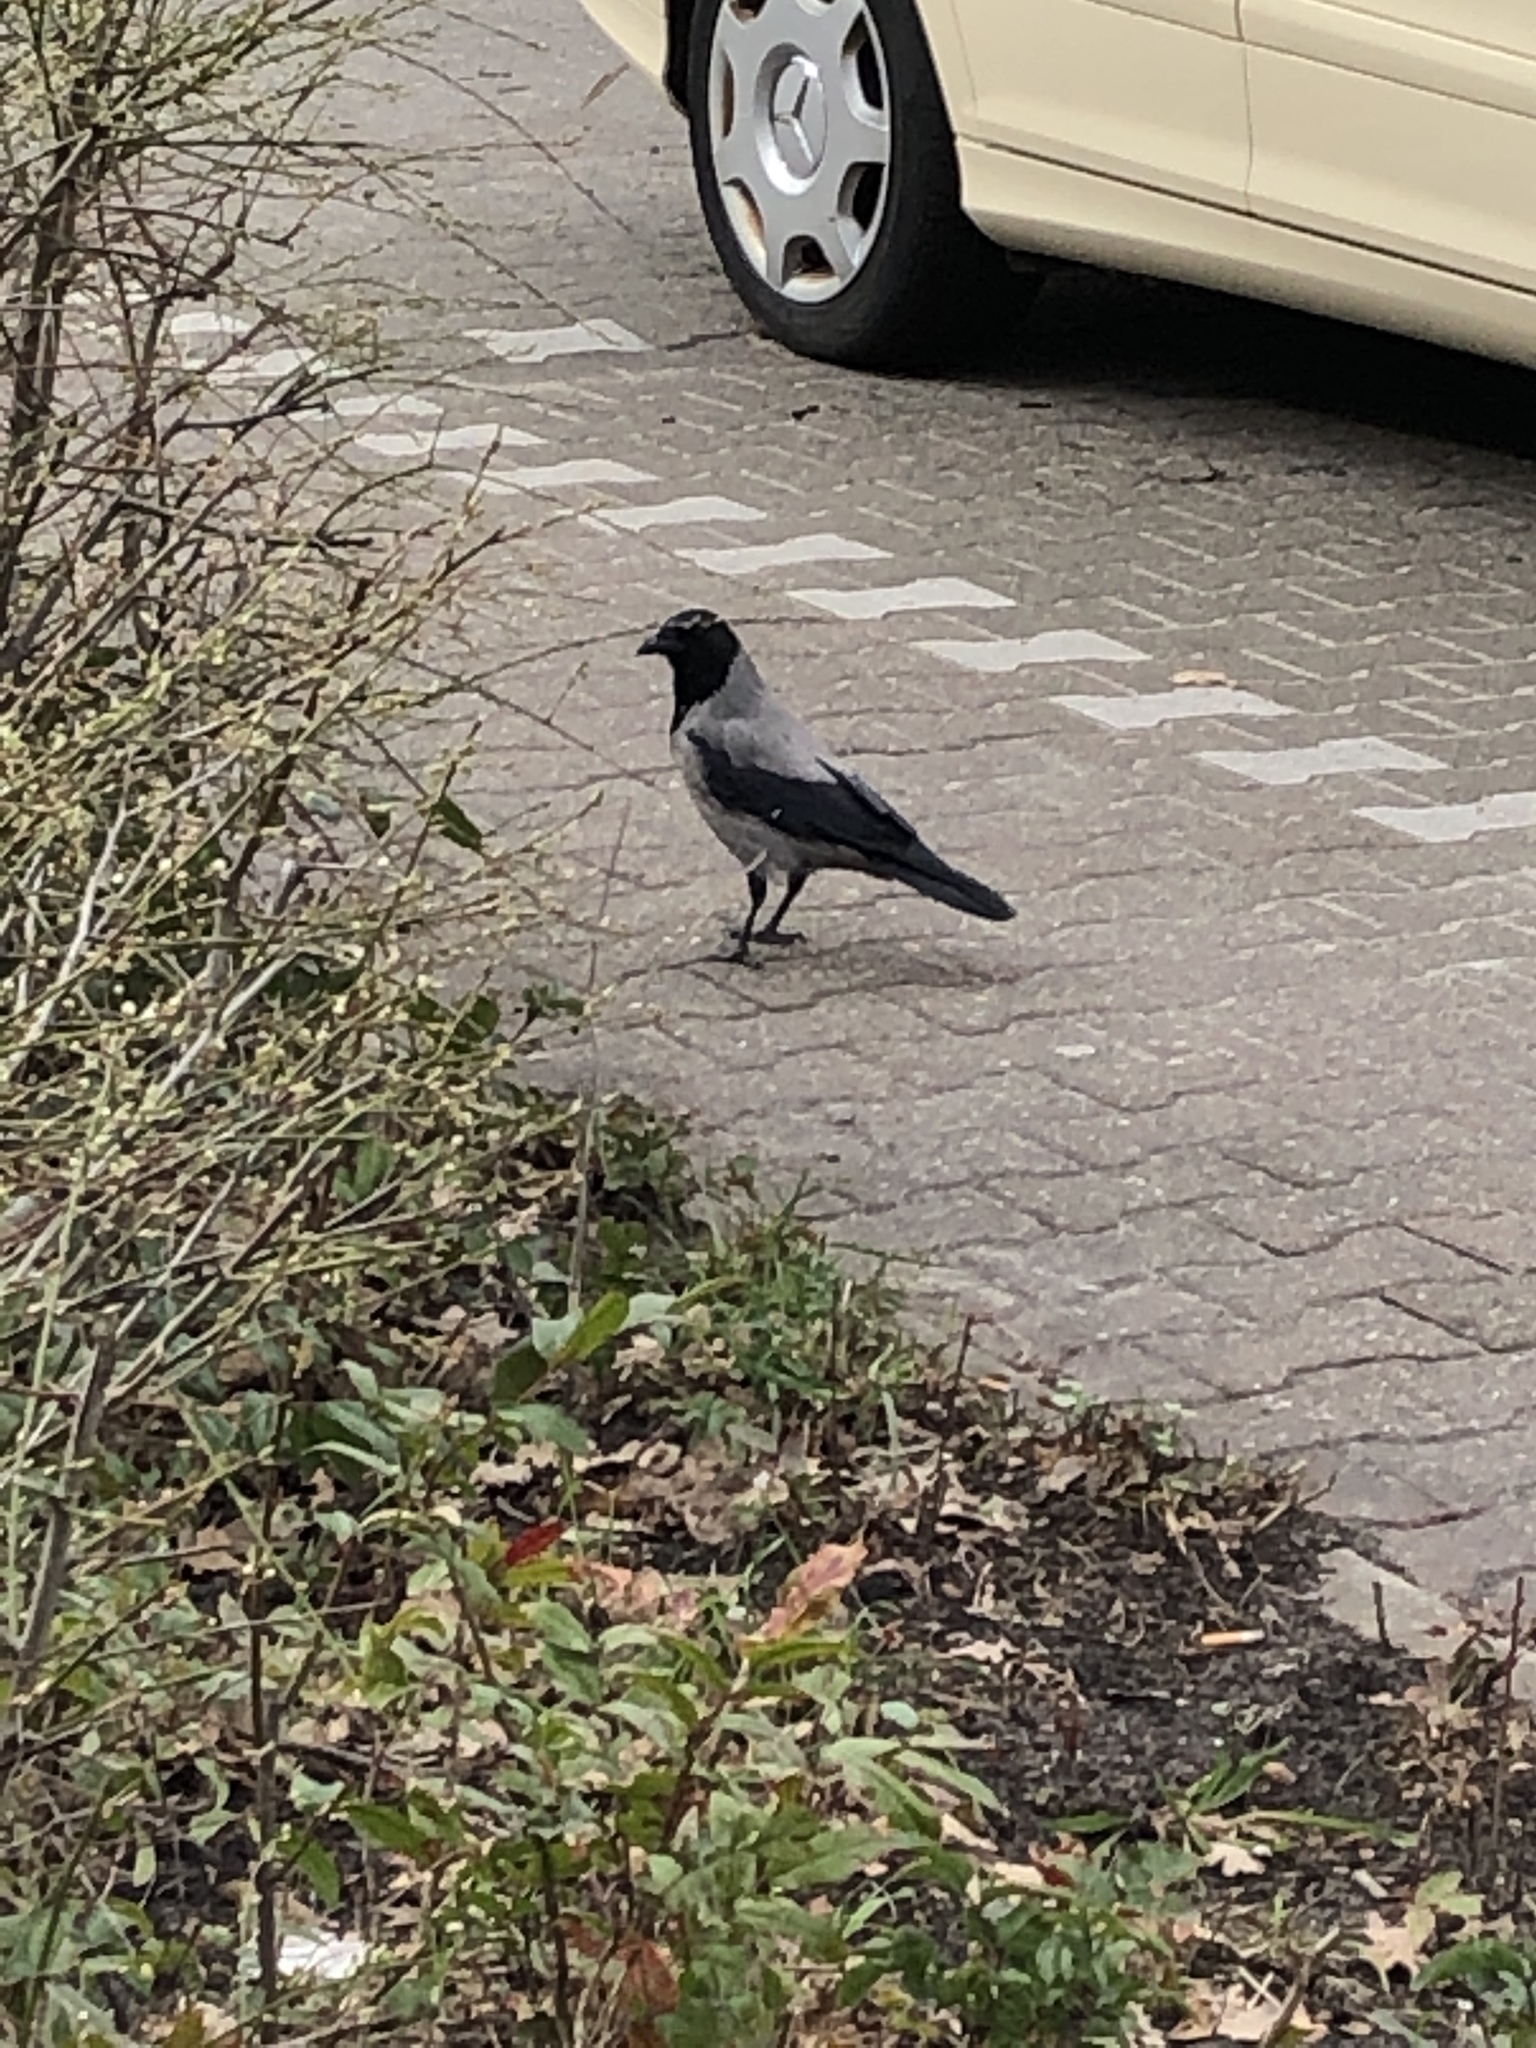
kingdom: Animalia
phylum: Chordata
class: Aves
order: Passeriformes
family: Corvidae
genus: Corvus
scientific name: Corvus cornix
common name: Hooded crow
